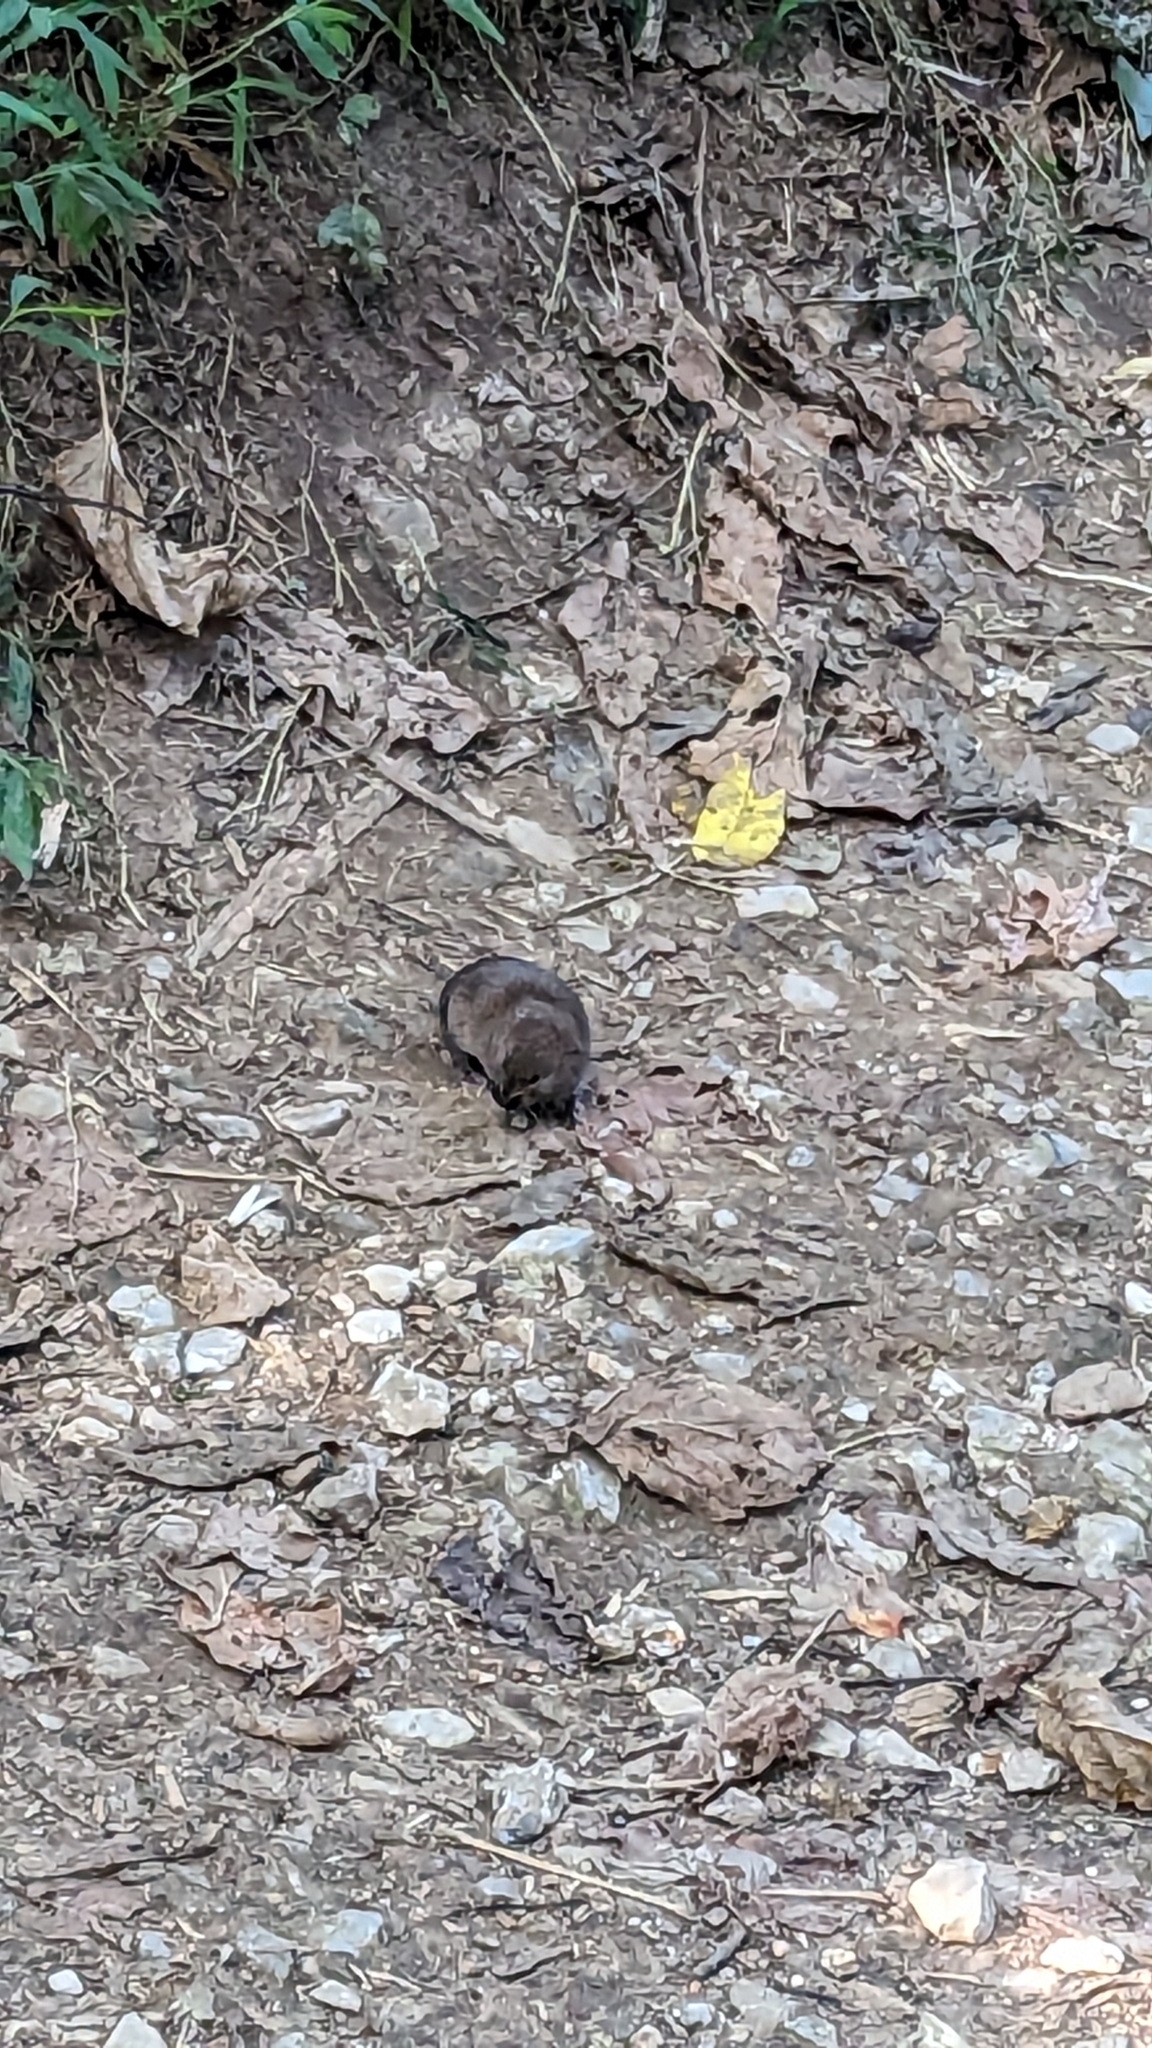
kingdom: Animalia
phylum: Chordata
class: Mammalia
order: Rodentia
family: Cricetidae
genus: Microtus
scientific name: Microtus pinetorum
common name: Woodland vole
